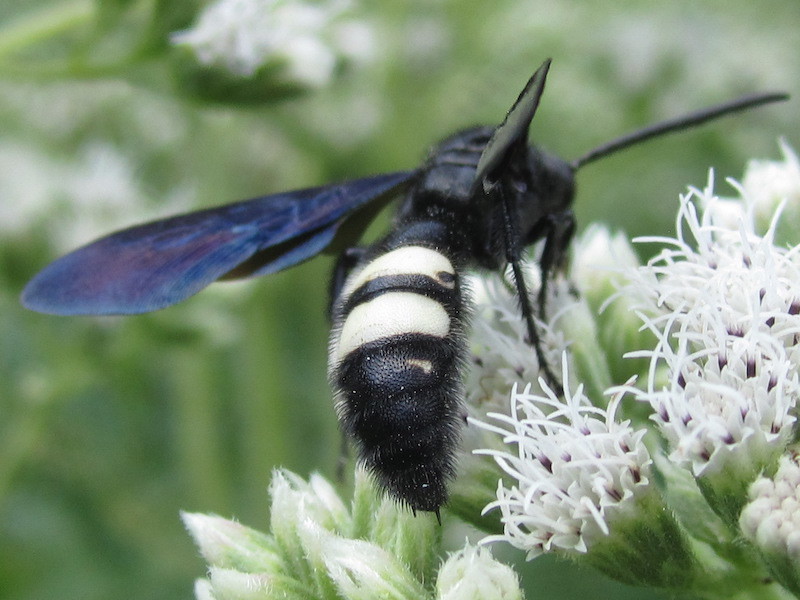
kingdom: Animalia
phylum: Arthropoda
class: Insecta
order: Hymenoptera
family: Scoliidae
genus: Scolia
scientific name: Scolia bicincta
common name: Double-banded scoliid wasp
